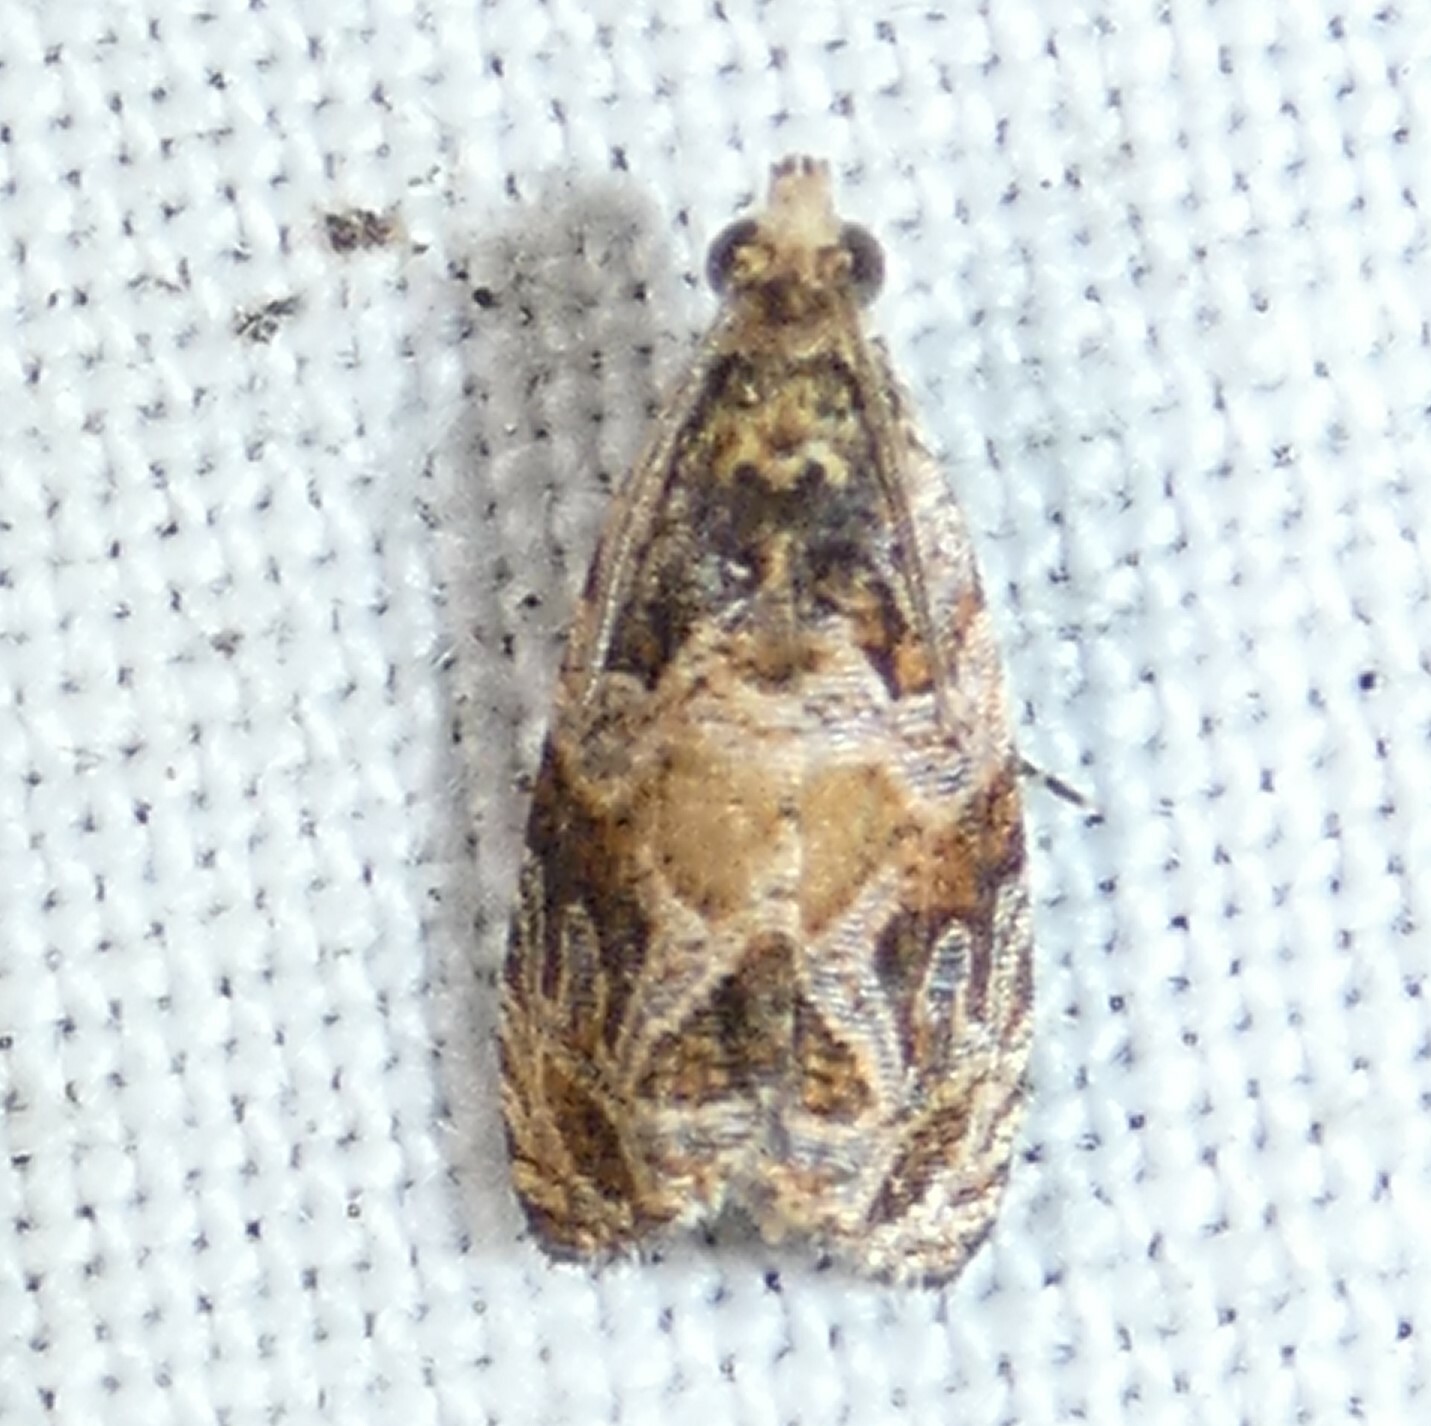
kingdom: Animalia
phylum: Arthropoda
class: Insecta
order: Lepidoptera
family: Tortricidae
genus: Celypha
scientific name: Celypha cespitana
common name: Thyme marble
